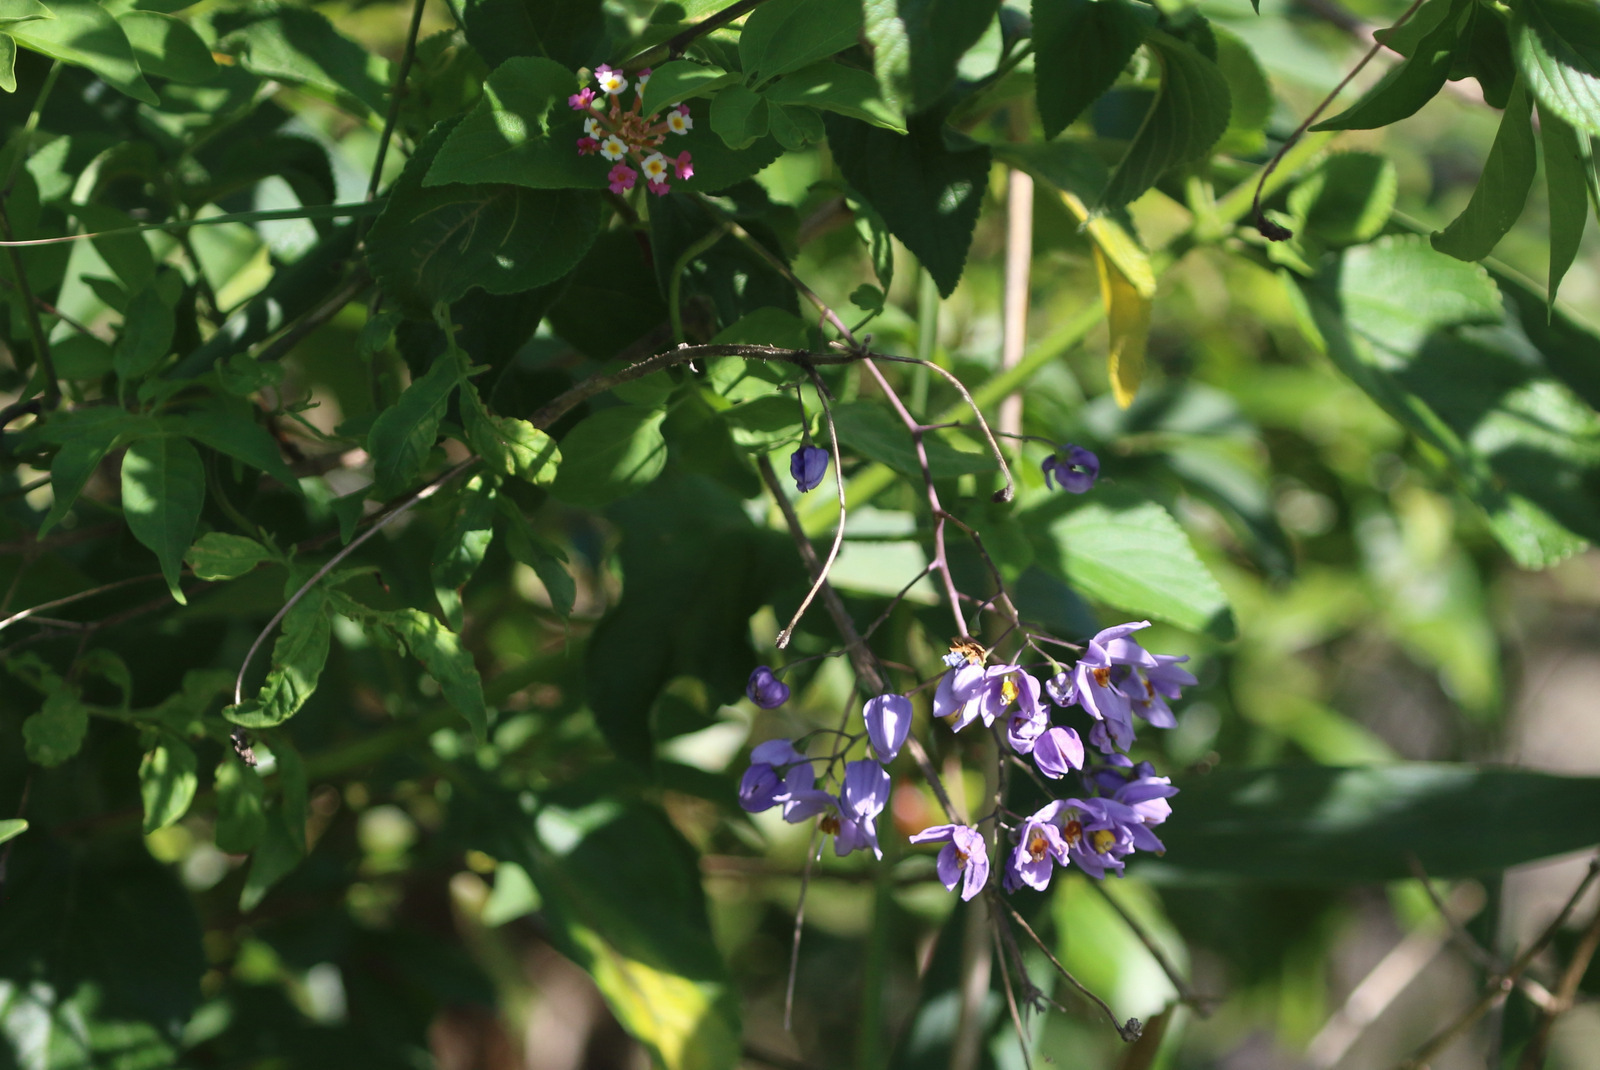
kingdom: Plantae
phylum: Tracheophyta
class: Magnoliopsida
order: Solanales
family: Solanaceae
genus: Solanum
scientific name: Solanum seaforthianum
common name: Brazilian nightshade
